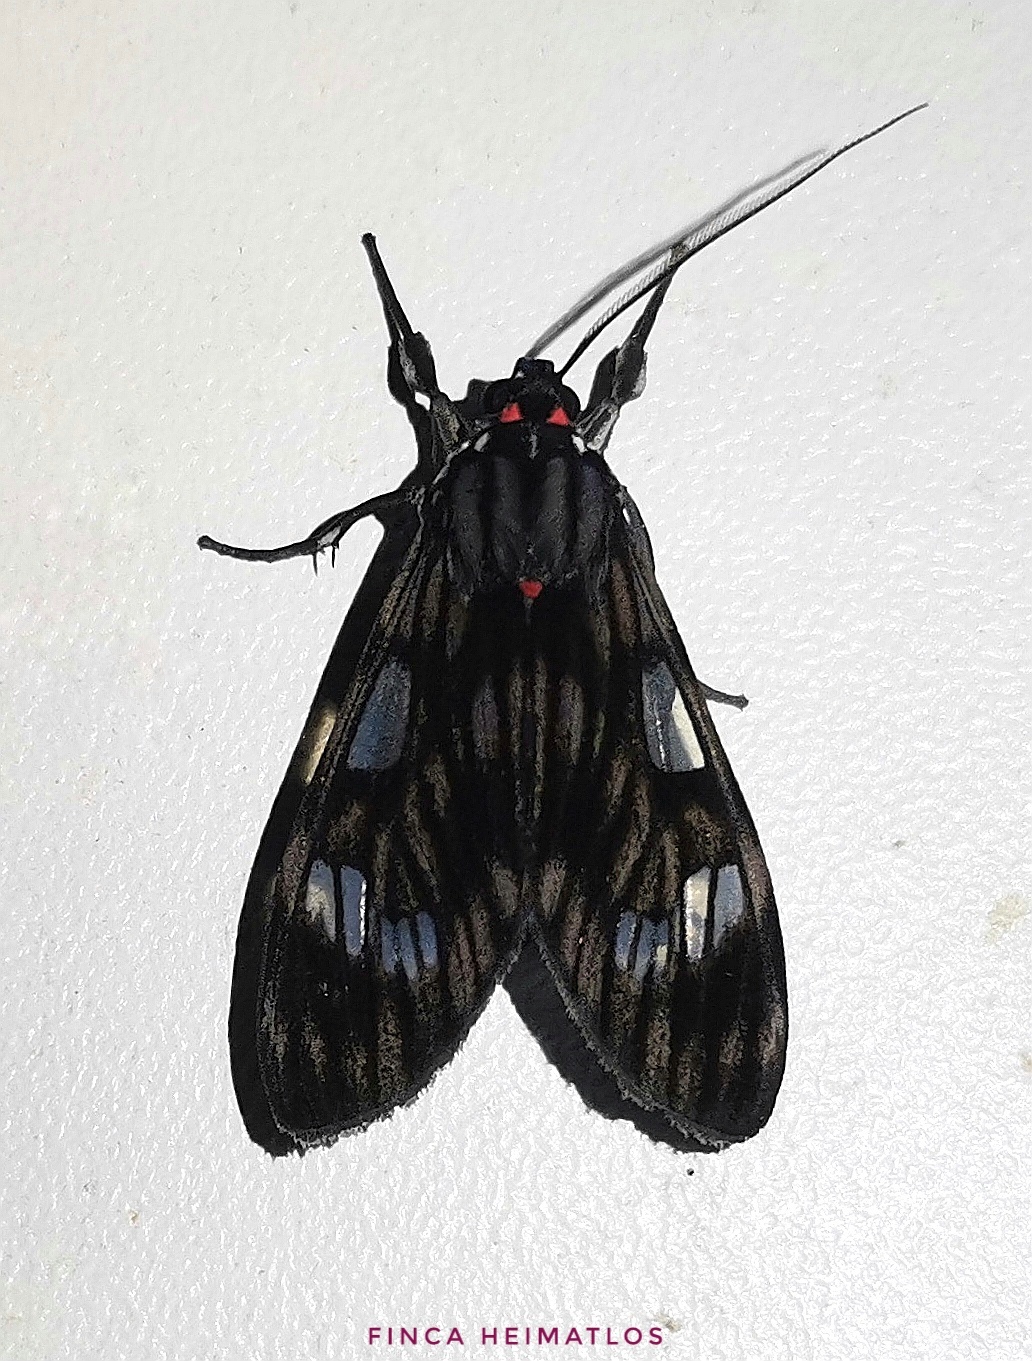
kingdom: Animalia
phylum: Arthropoda
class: Insecta
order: Lepidoptera
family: Erebidae
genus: Episcepsis
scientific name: Episcepsis
